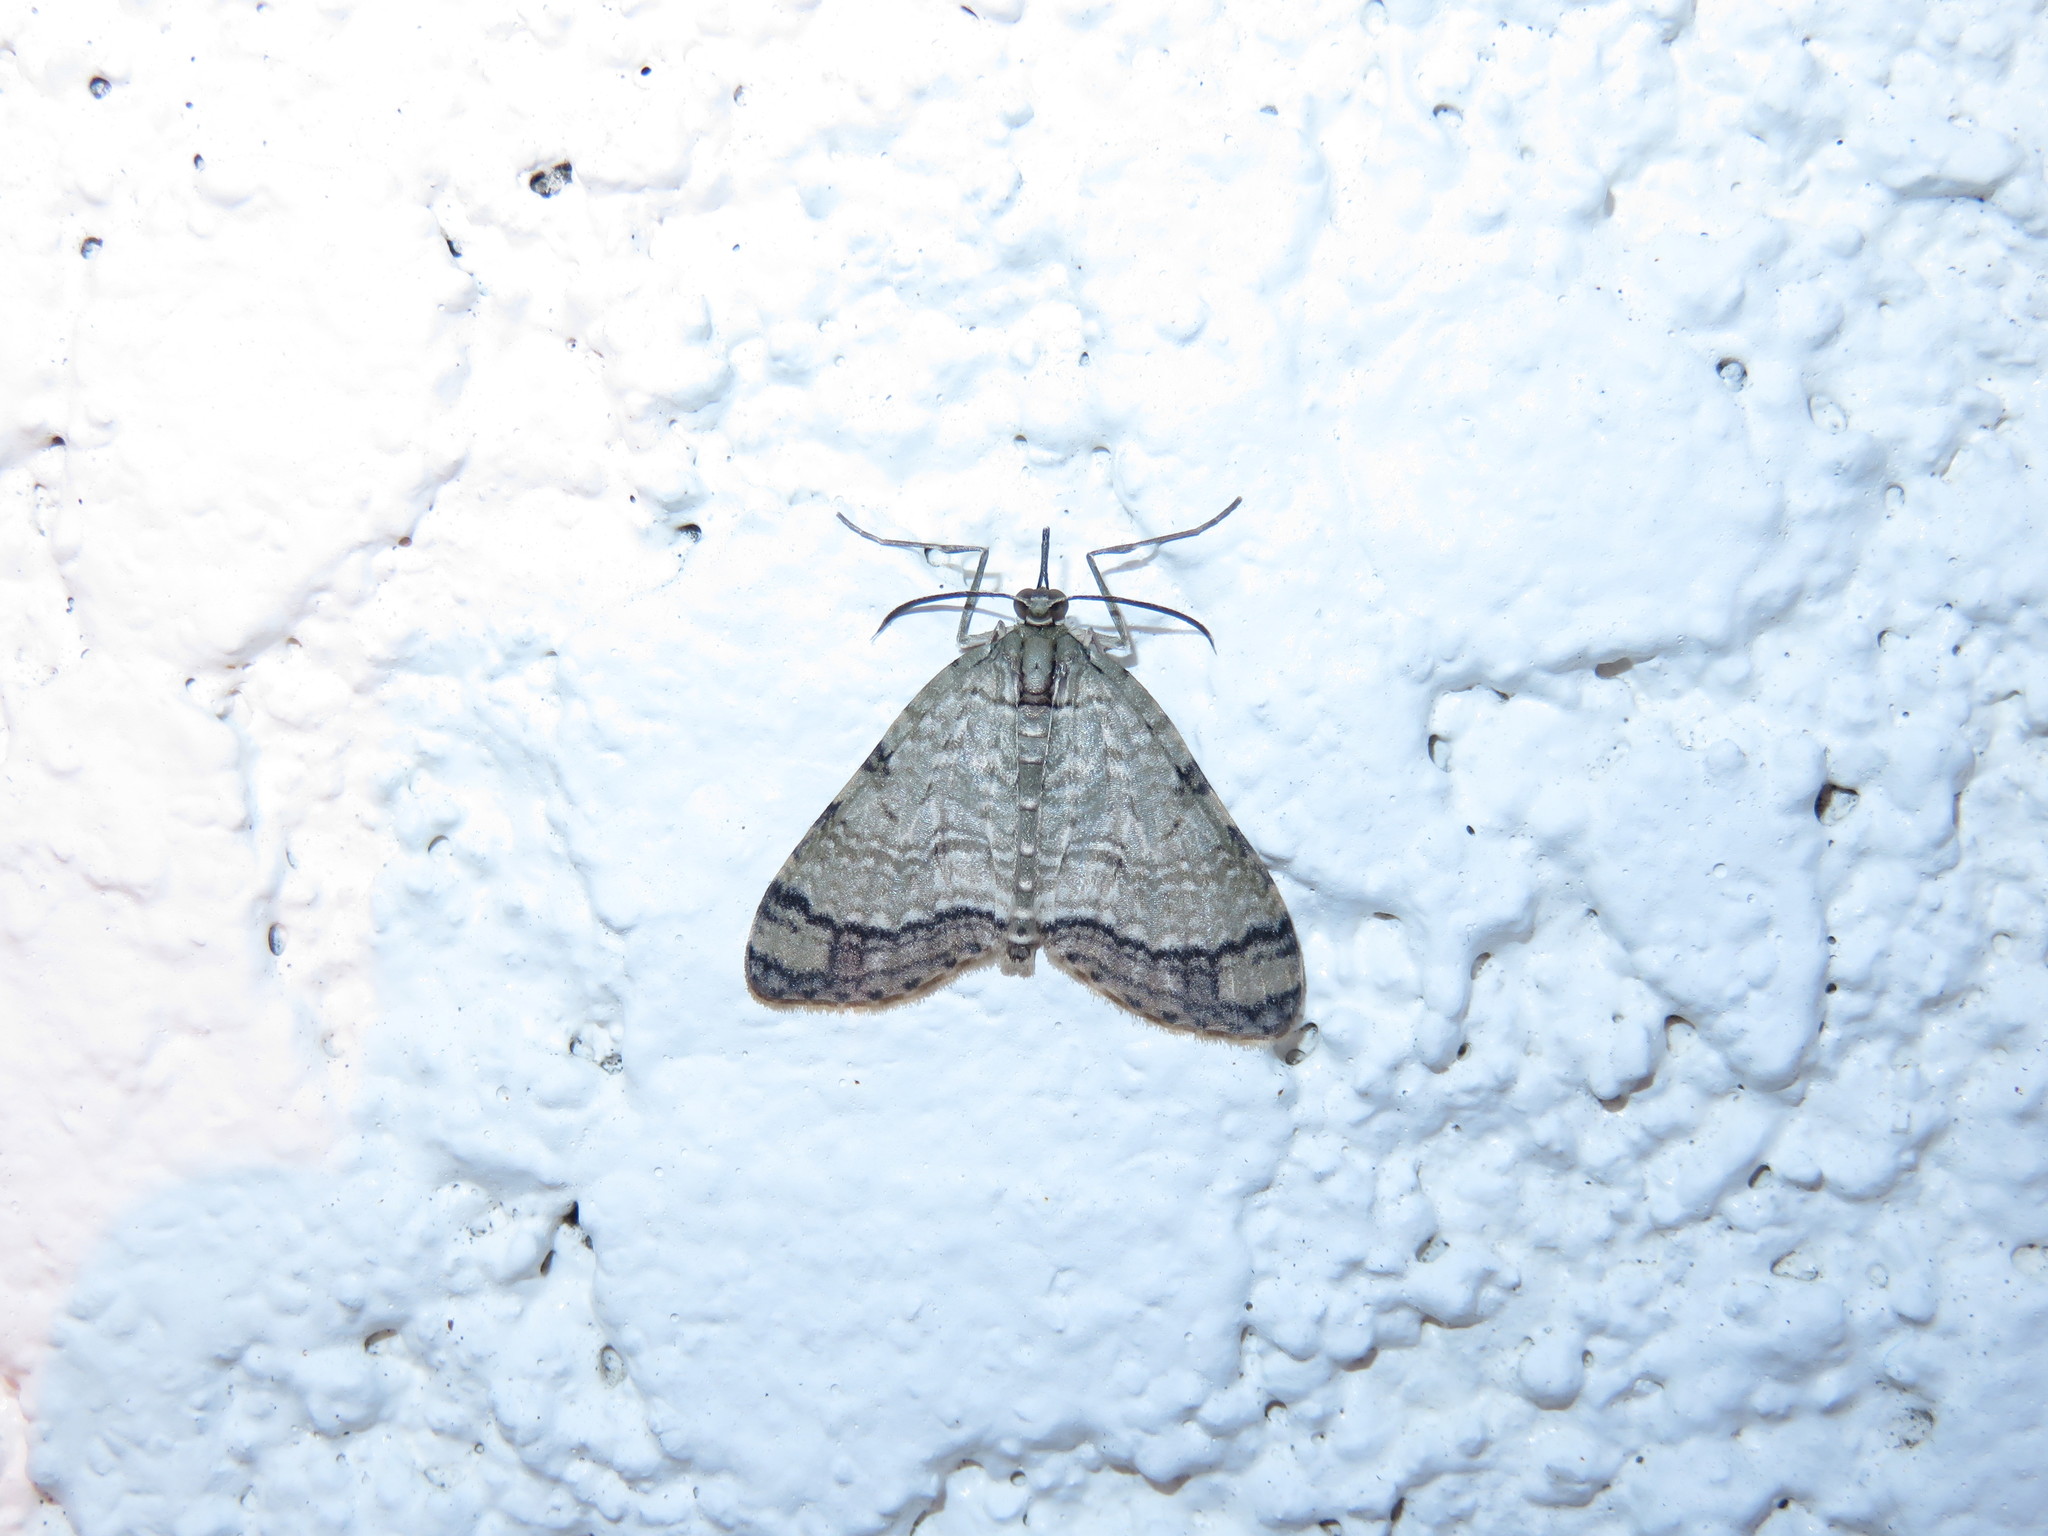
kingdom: Animalia
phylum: Arthropoda
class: Insecta
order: Lepidoptera
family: Geometridae
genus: Episteira
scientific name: Episteira nigrilinearia
